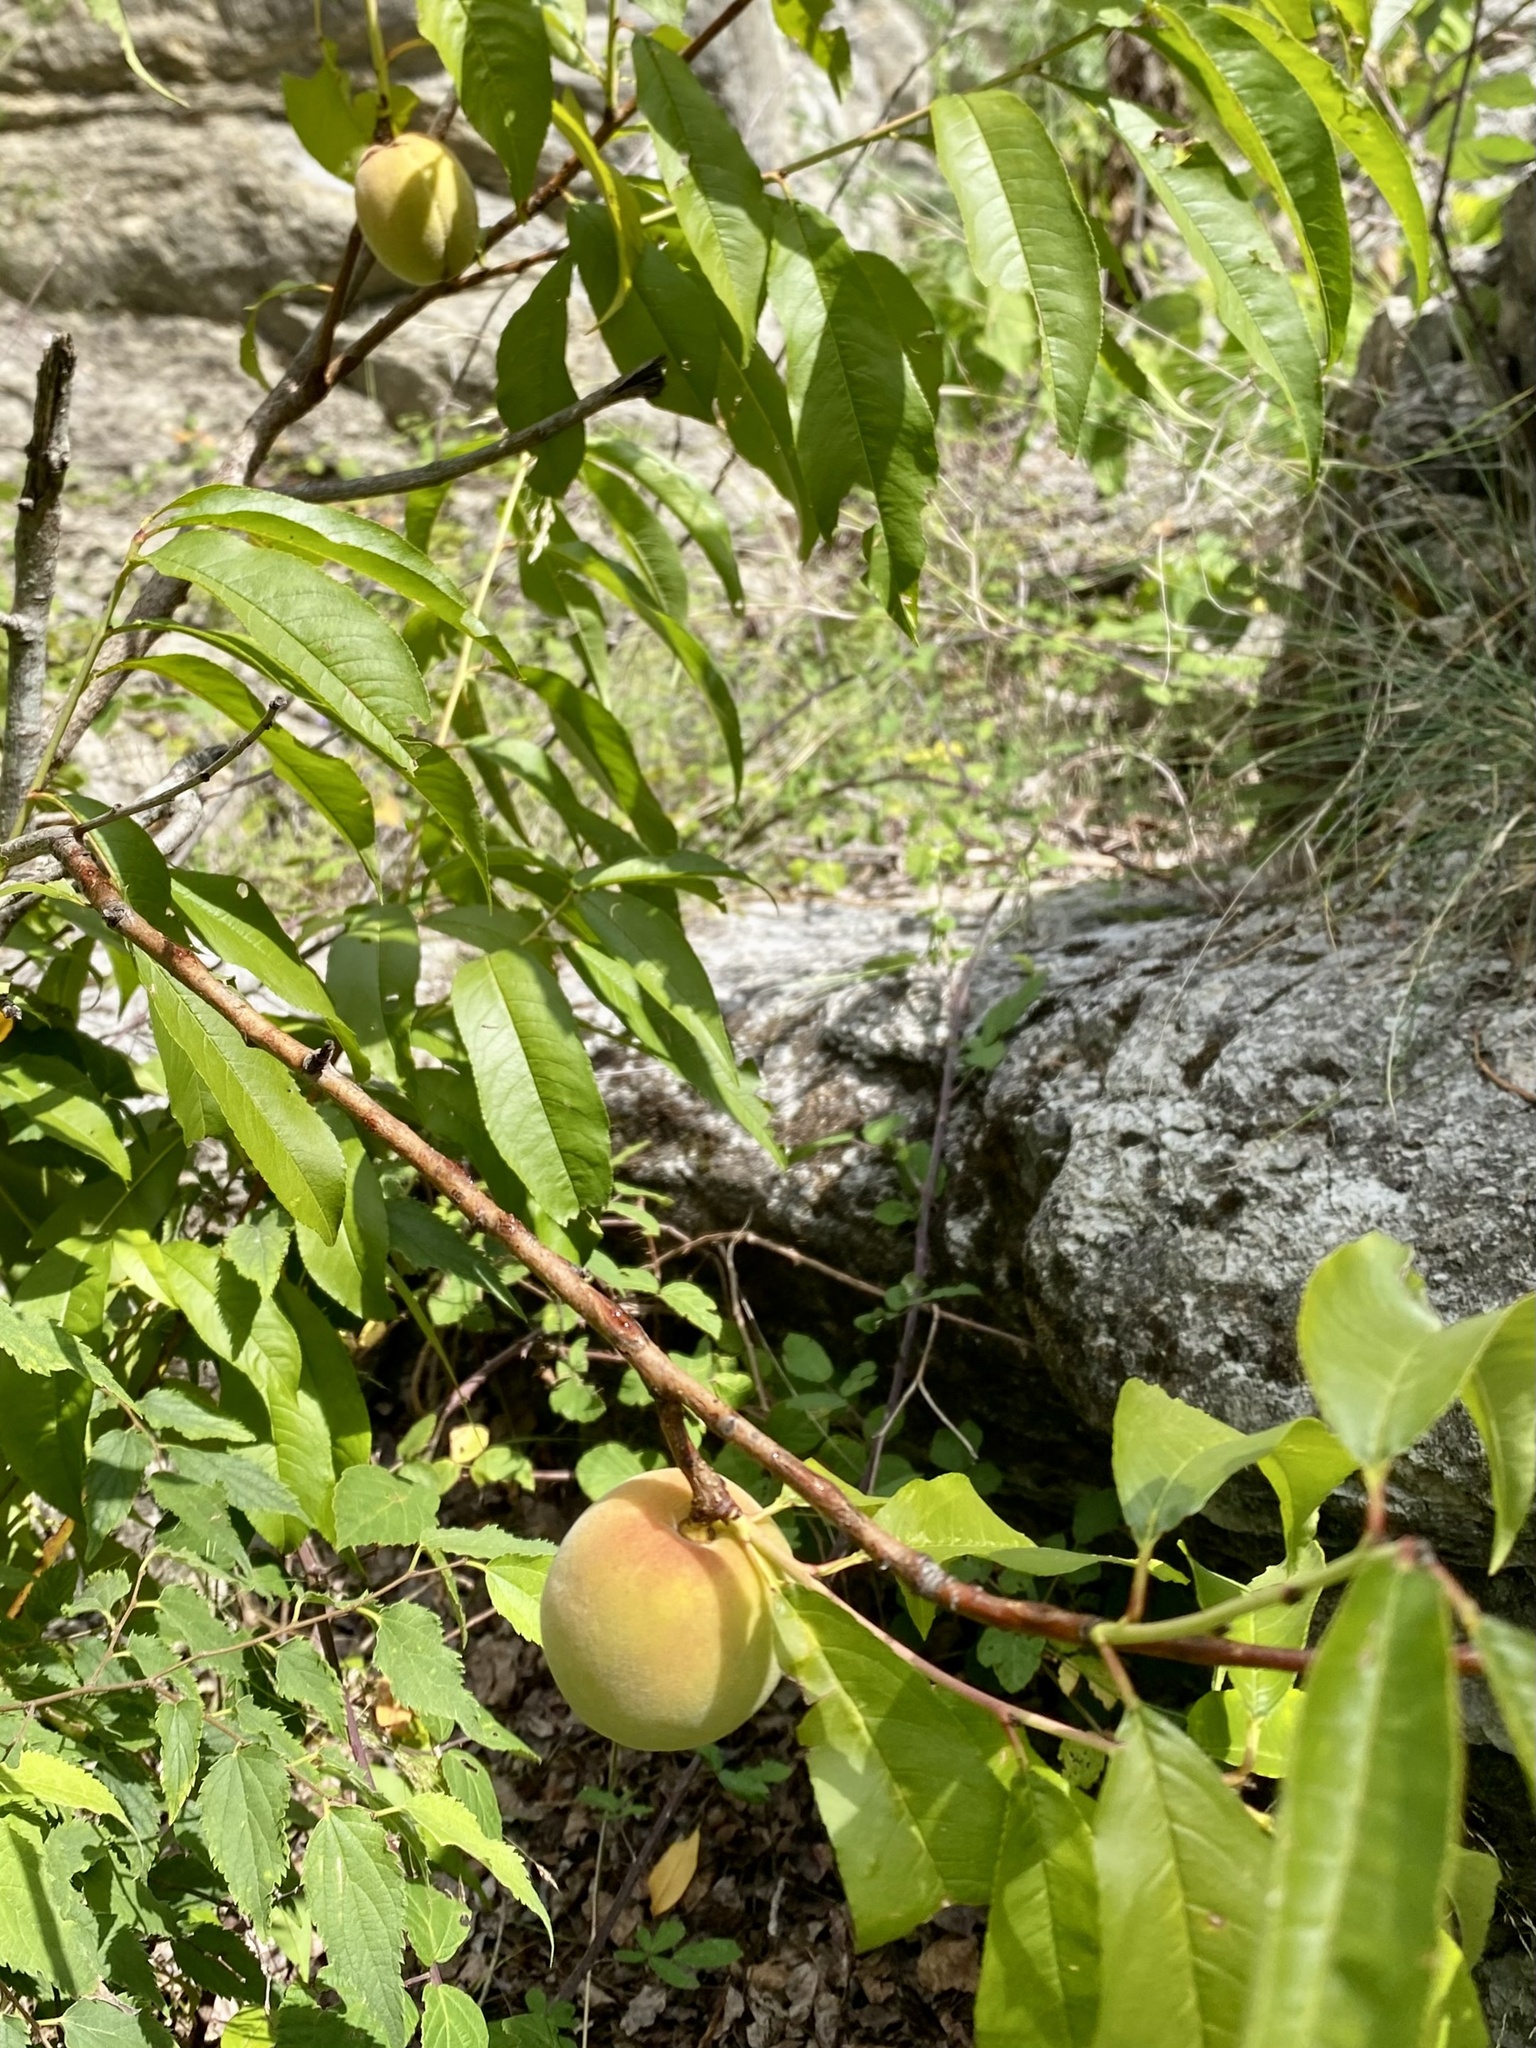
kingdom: Plantae
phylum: Tracheophyta
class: Magnoliopsida
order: Rosales
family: Rosaceae
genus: Prunus
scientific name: Prunus persica
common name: Peach
